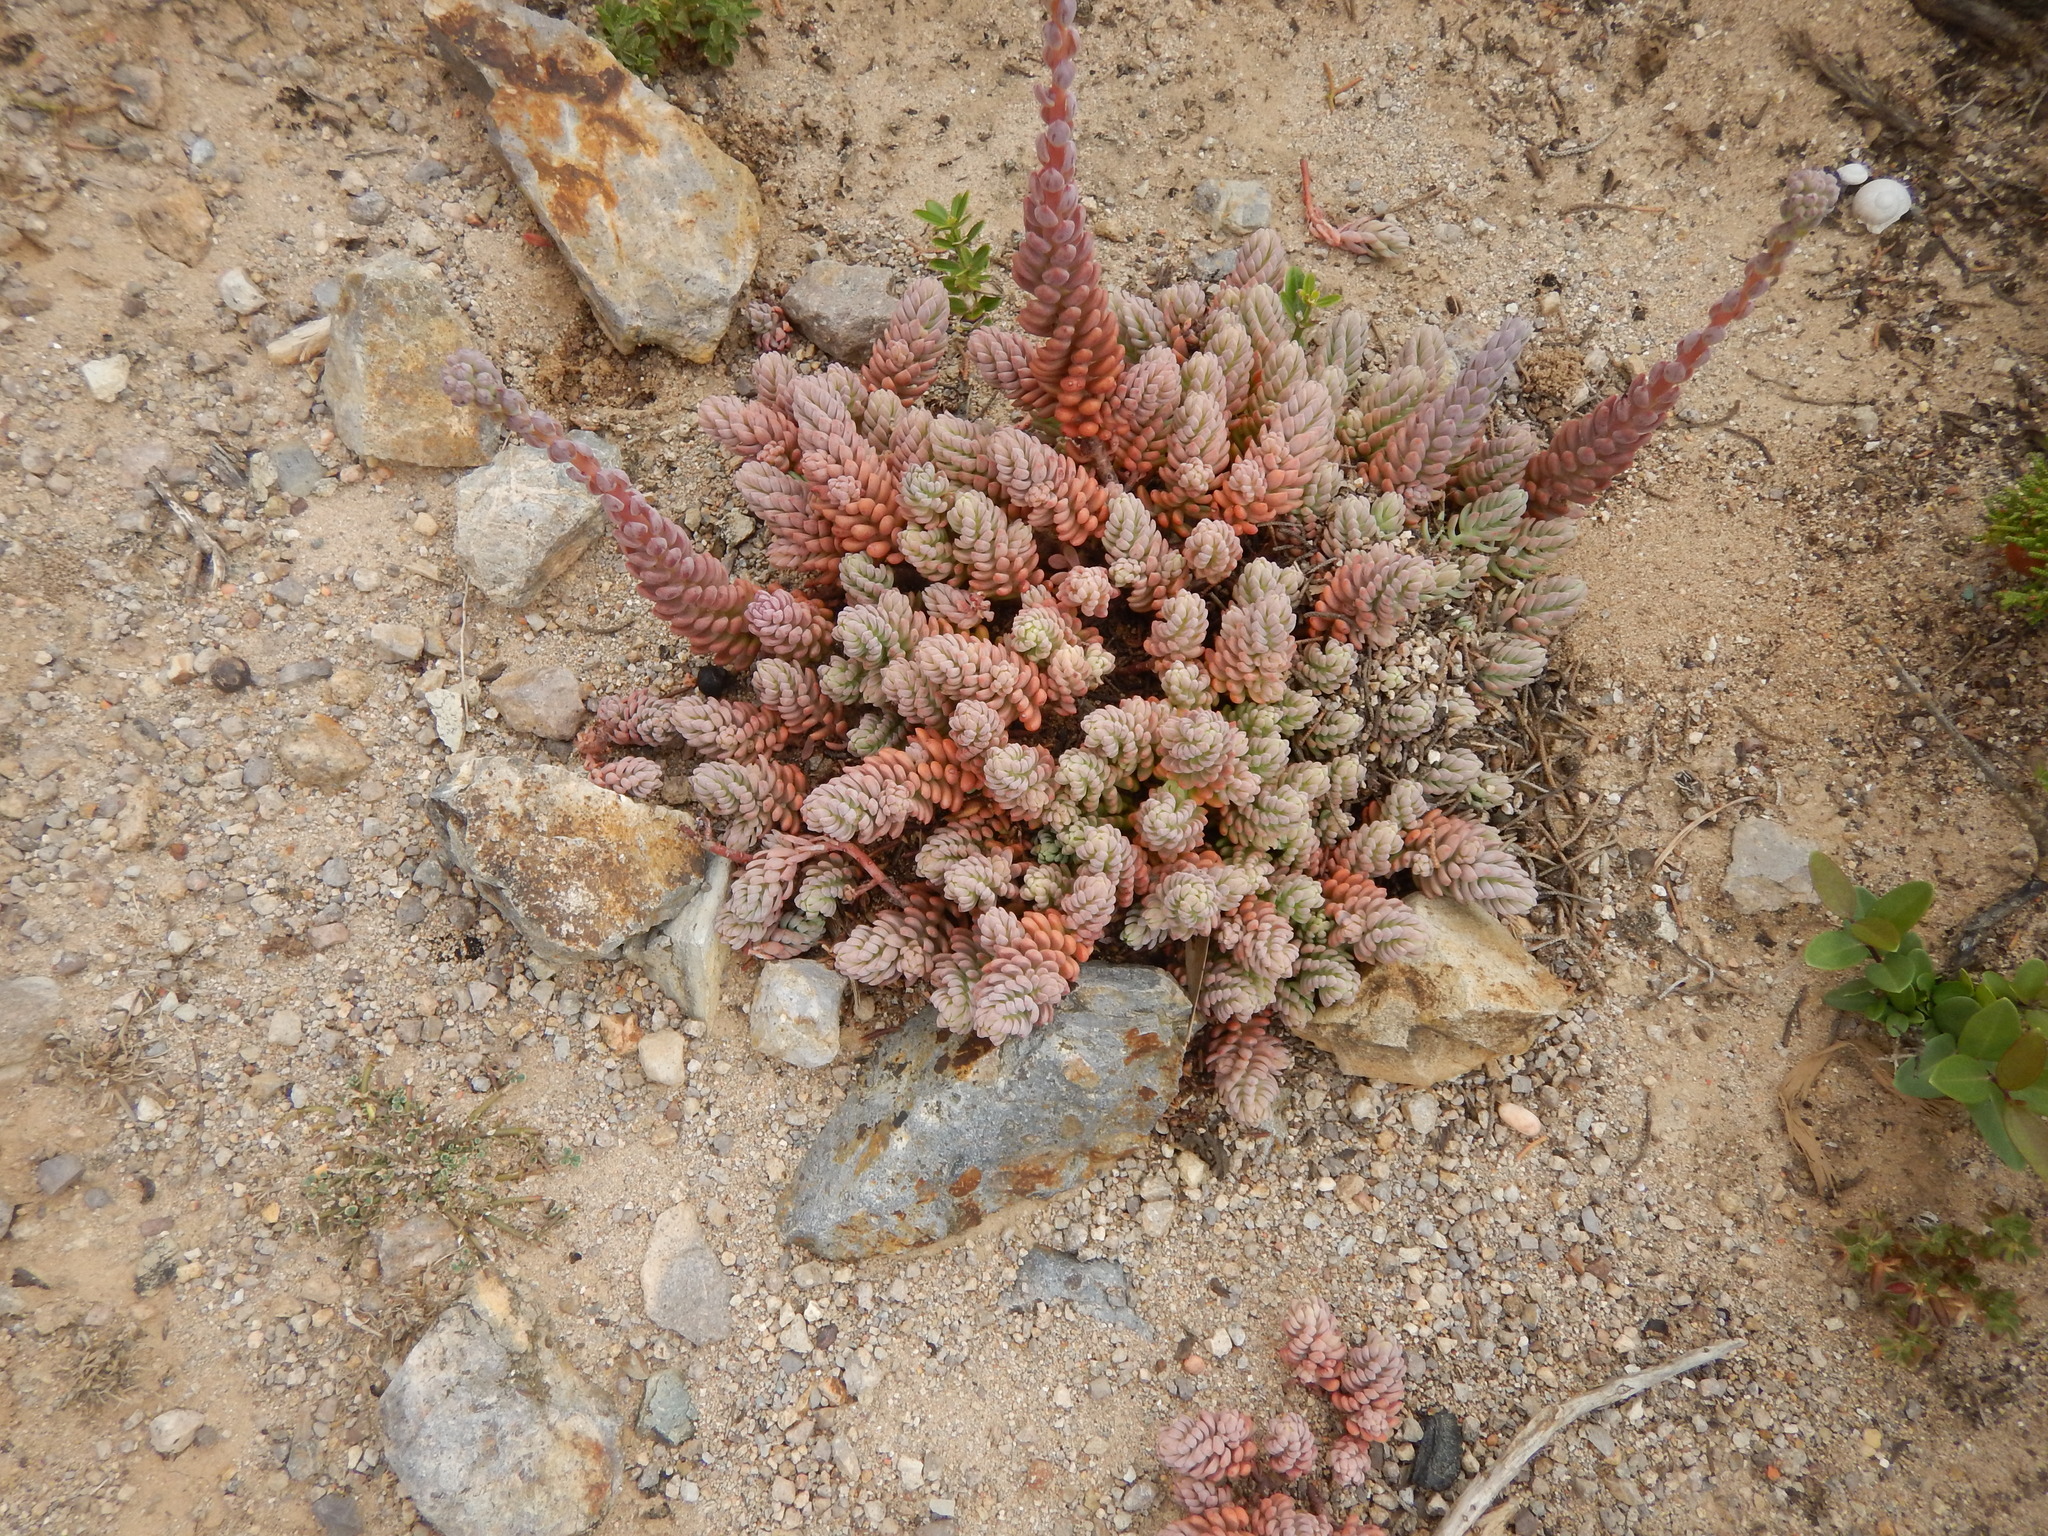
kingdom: Plantae
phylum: Tracheophyta
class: Magnoliopsida
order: Saxifragales
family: Crassulaceae
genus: Petrosedum
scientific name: Petrosedum sediforme
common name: Pale stonecrop
